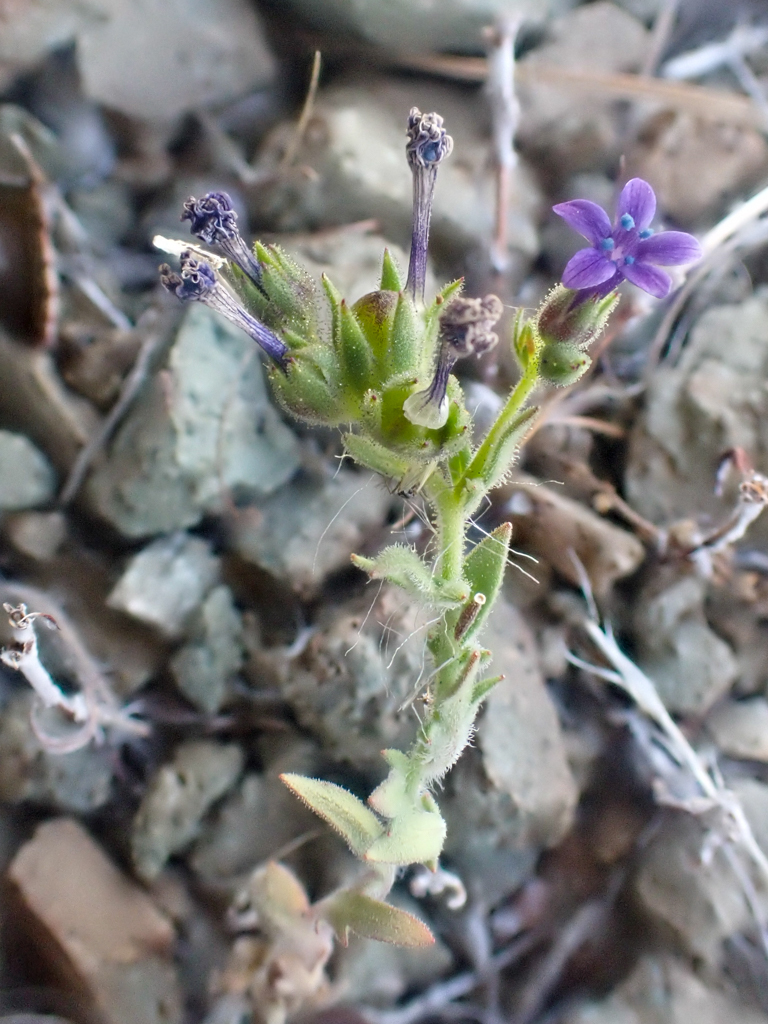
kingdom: Plantae
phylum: Tracheophyta
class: Magnoliopsida
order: Ericales
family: Polemoniaceae
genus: Allophyllum
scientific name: Allophyllum gilioides
